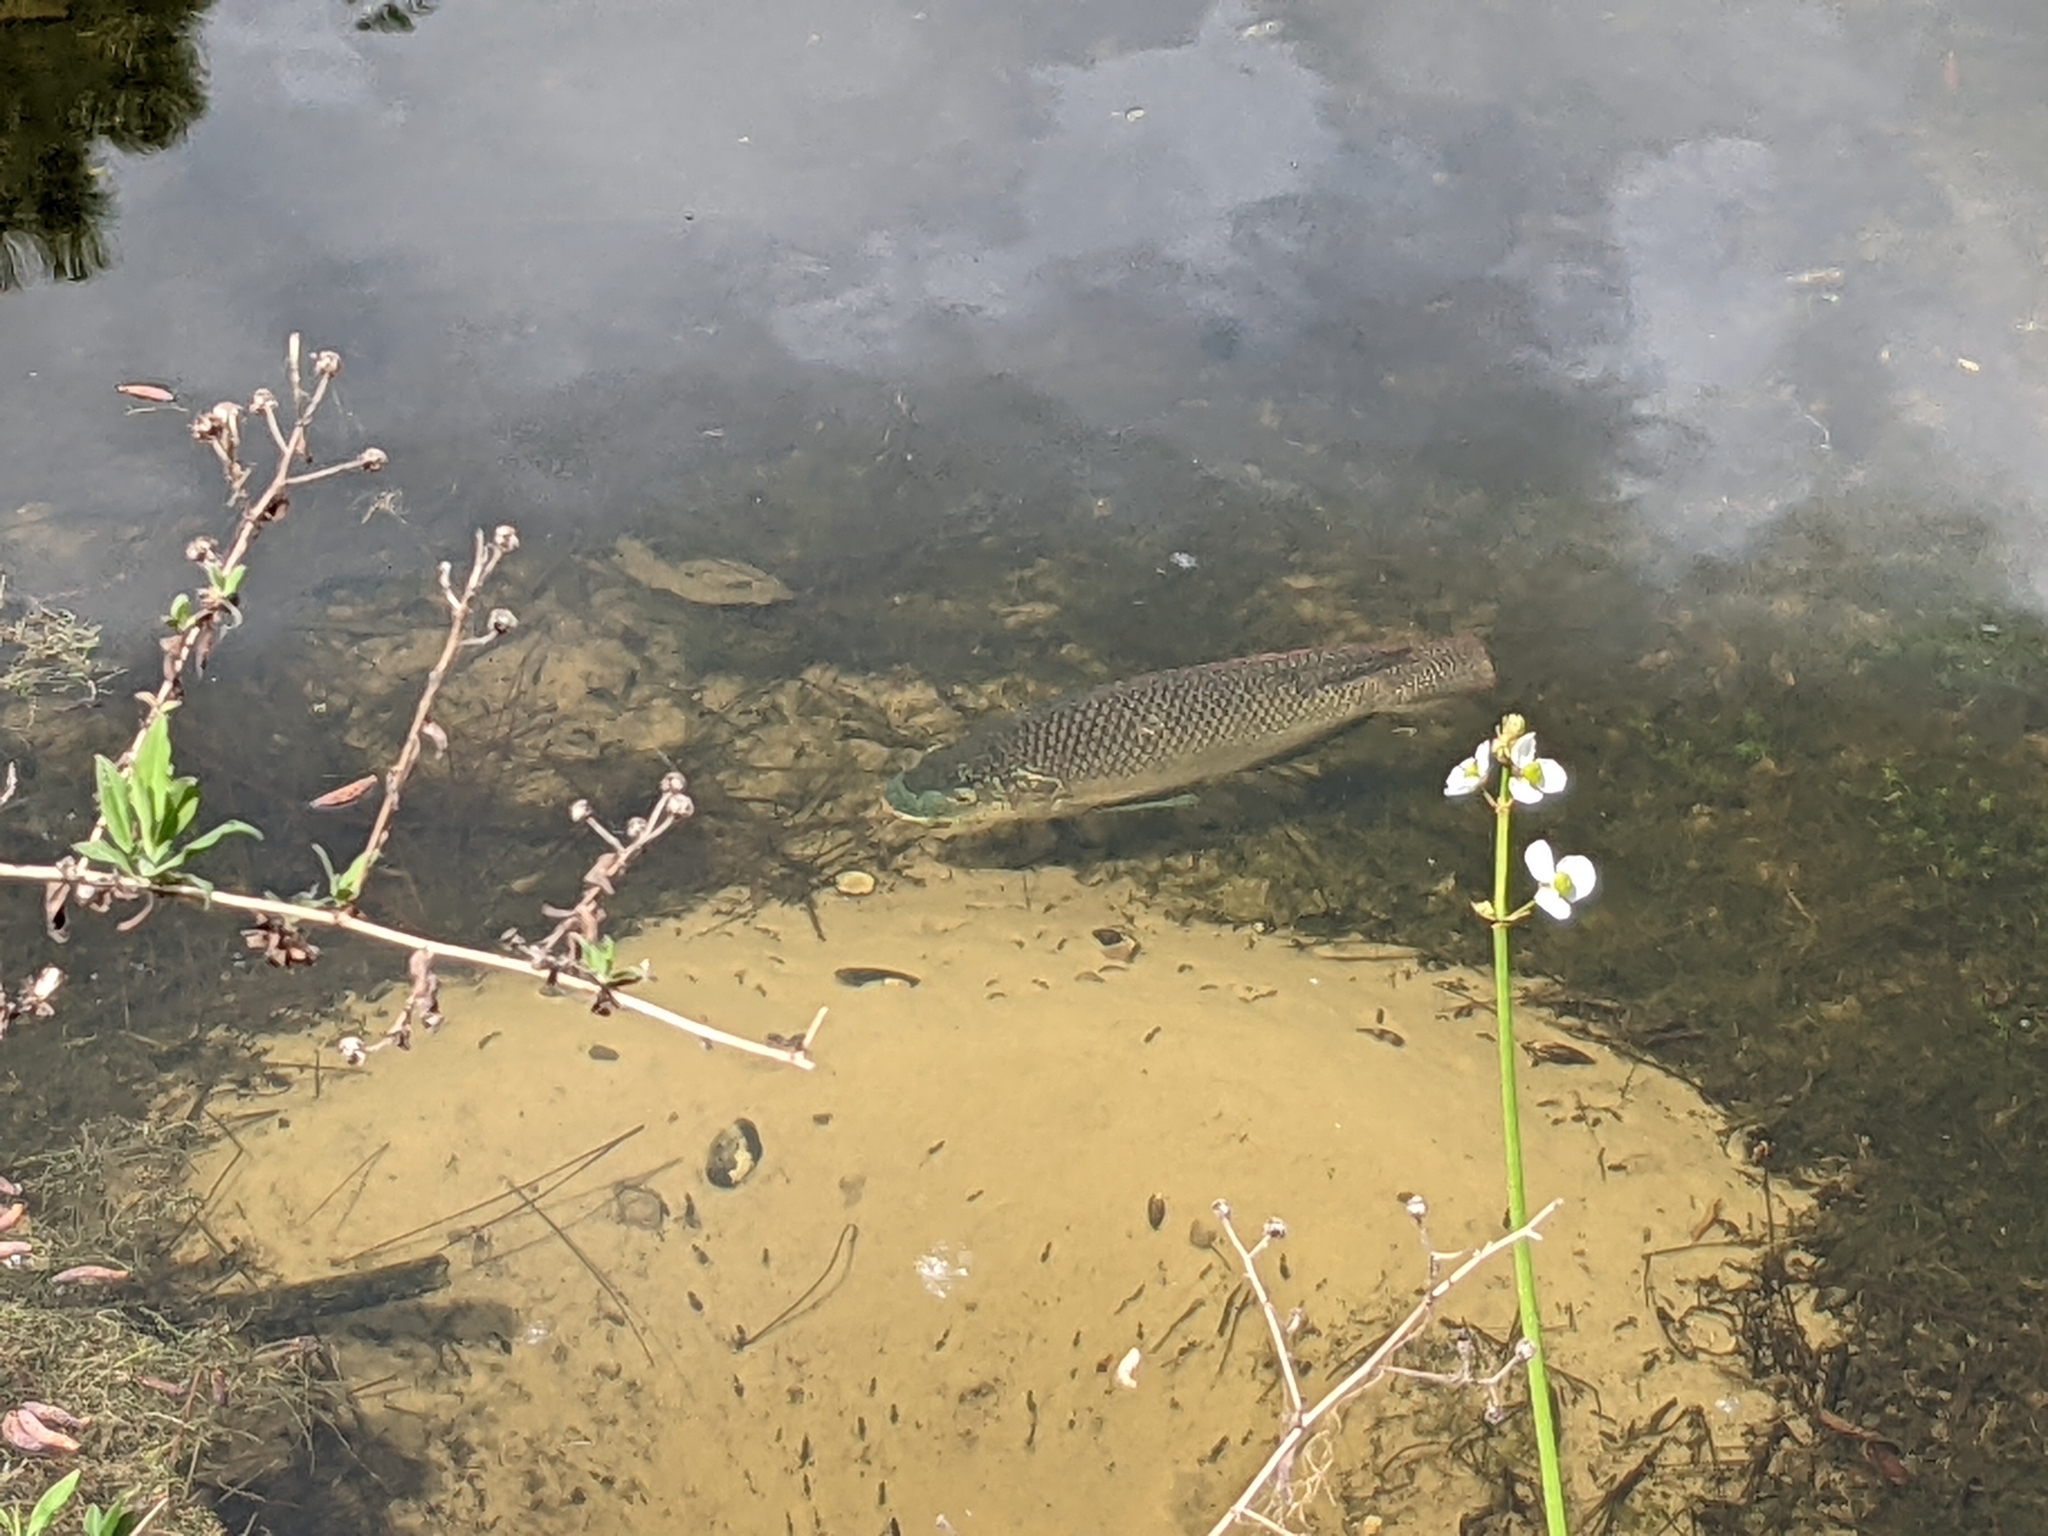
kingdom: Animalia
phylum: Chordata
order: Perciformes
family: Cichlidae
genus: Oreochromis
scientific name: Oreochromis
